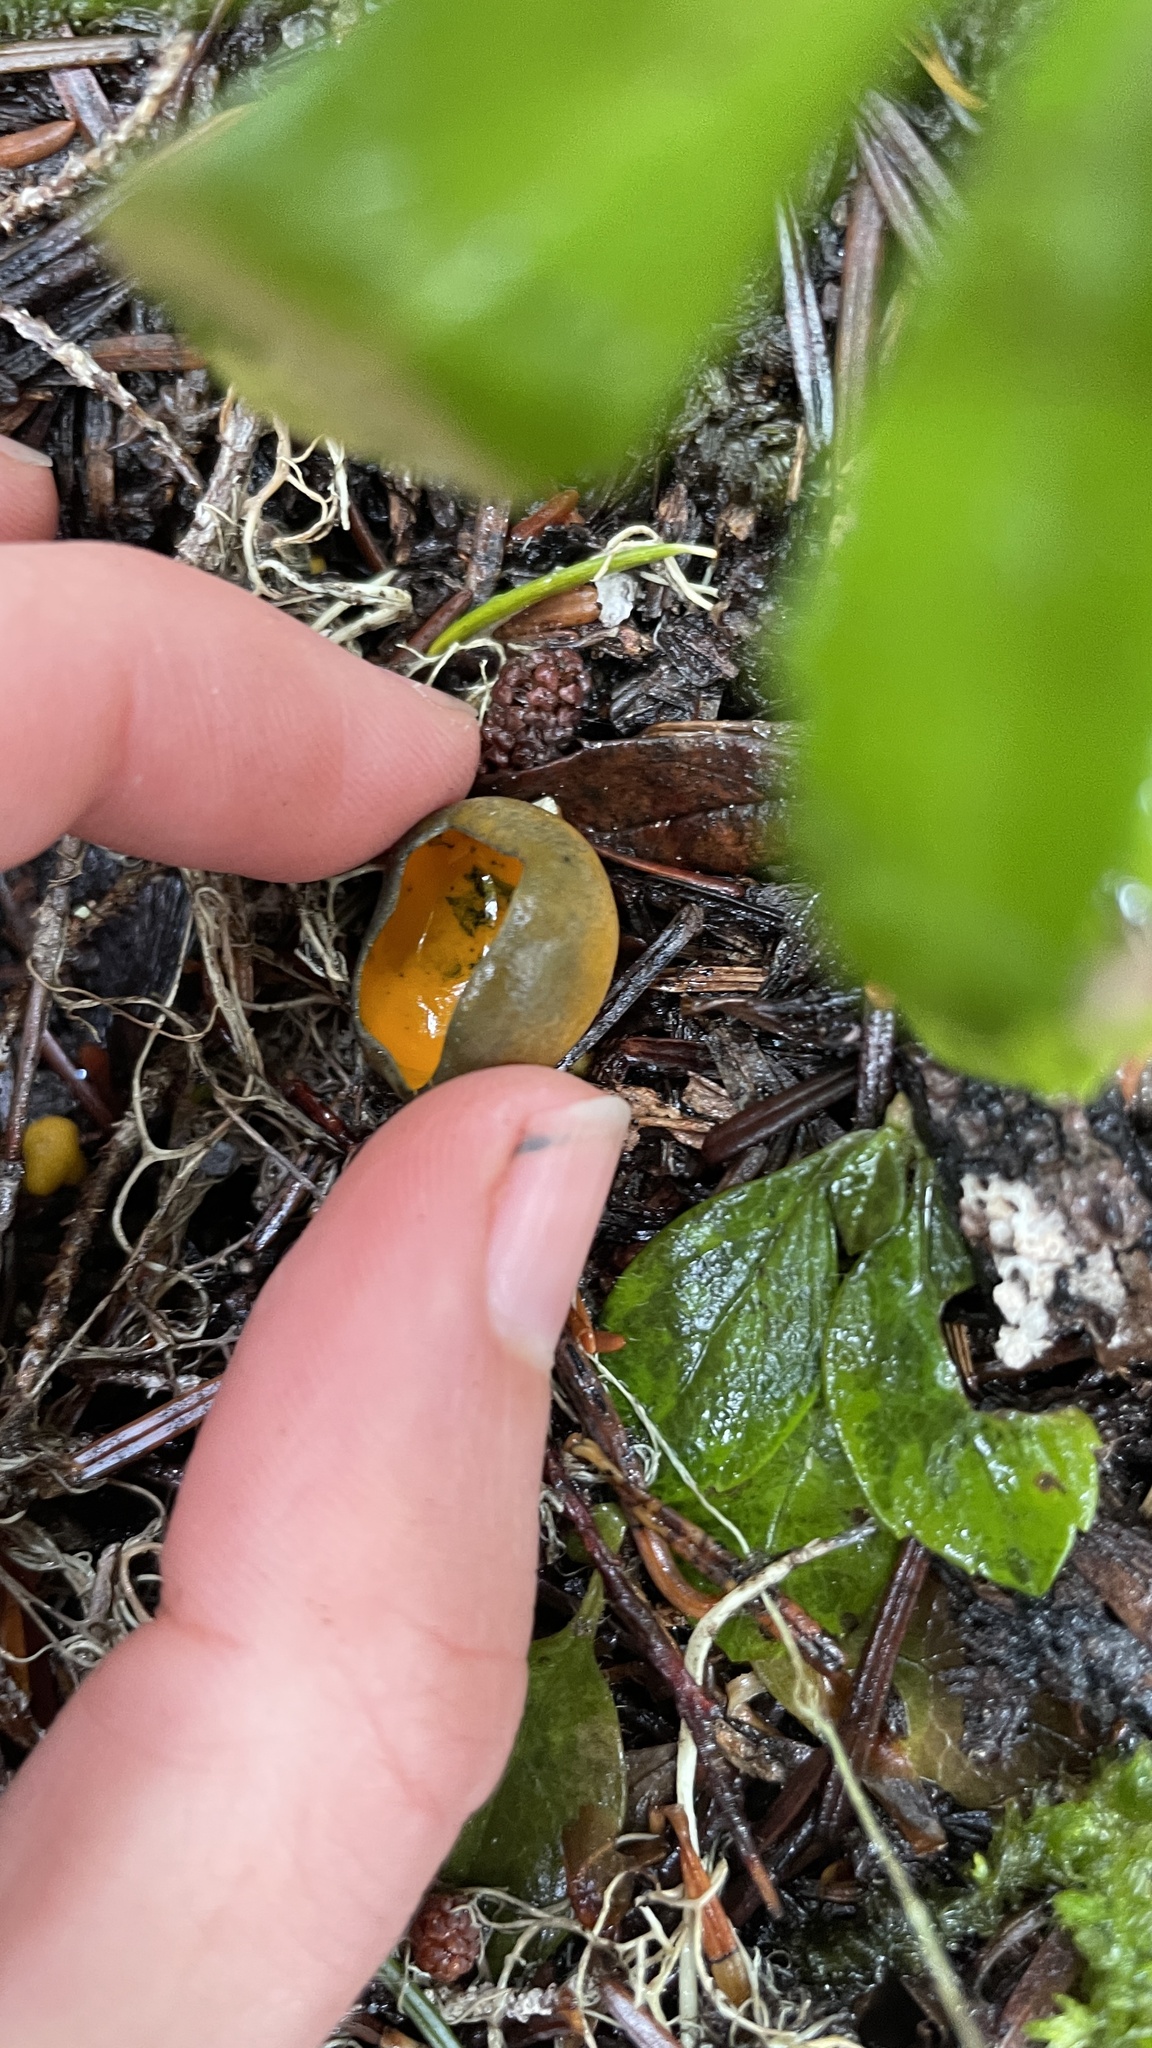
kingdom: Fungi
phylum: Ascomycota
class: Pezizomycetes
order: Pezizales
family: Caloscyphaceae
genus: Caloscypha
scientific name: Caloscypha fulgens
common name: Golden cup
